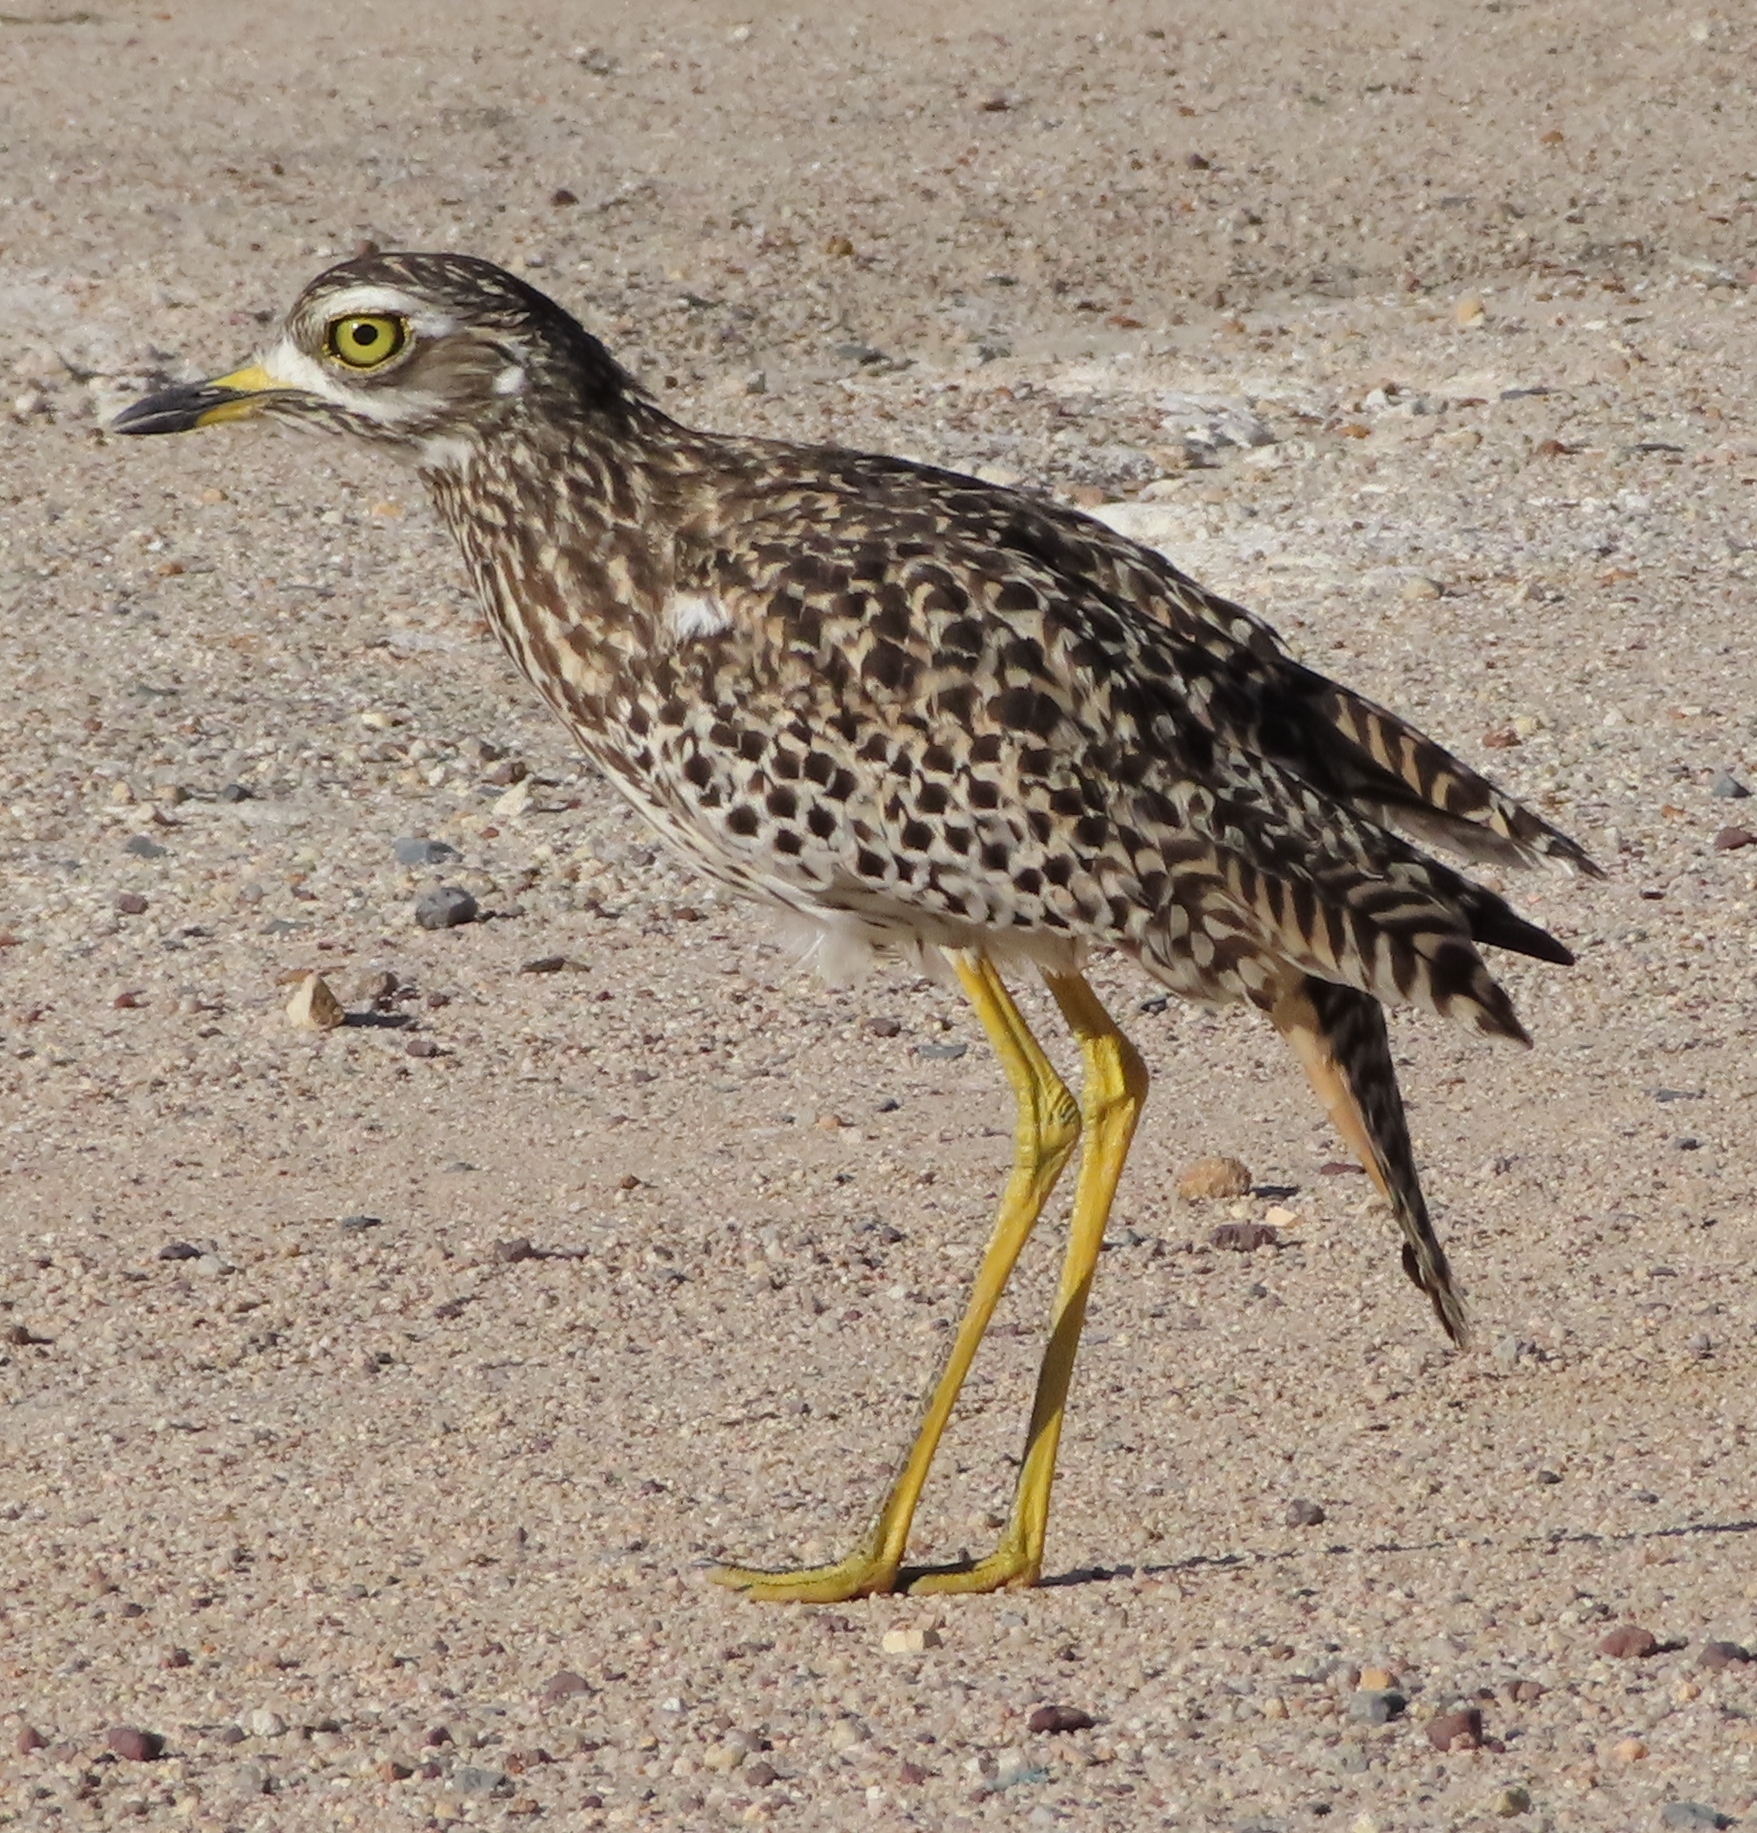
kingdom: Animalia
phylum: Chordata
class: Aves
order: Charadriiformes
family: Burhinidae
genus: Burhinus
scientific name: Burhinus capensis
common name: Spotted thick-knee
